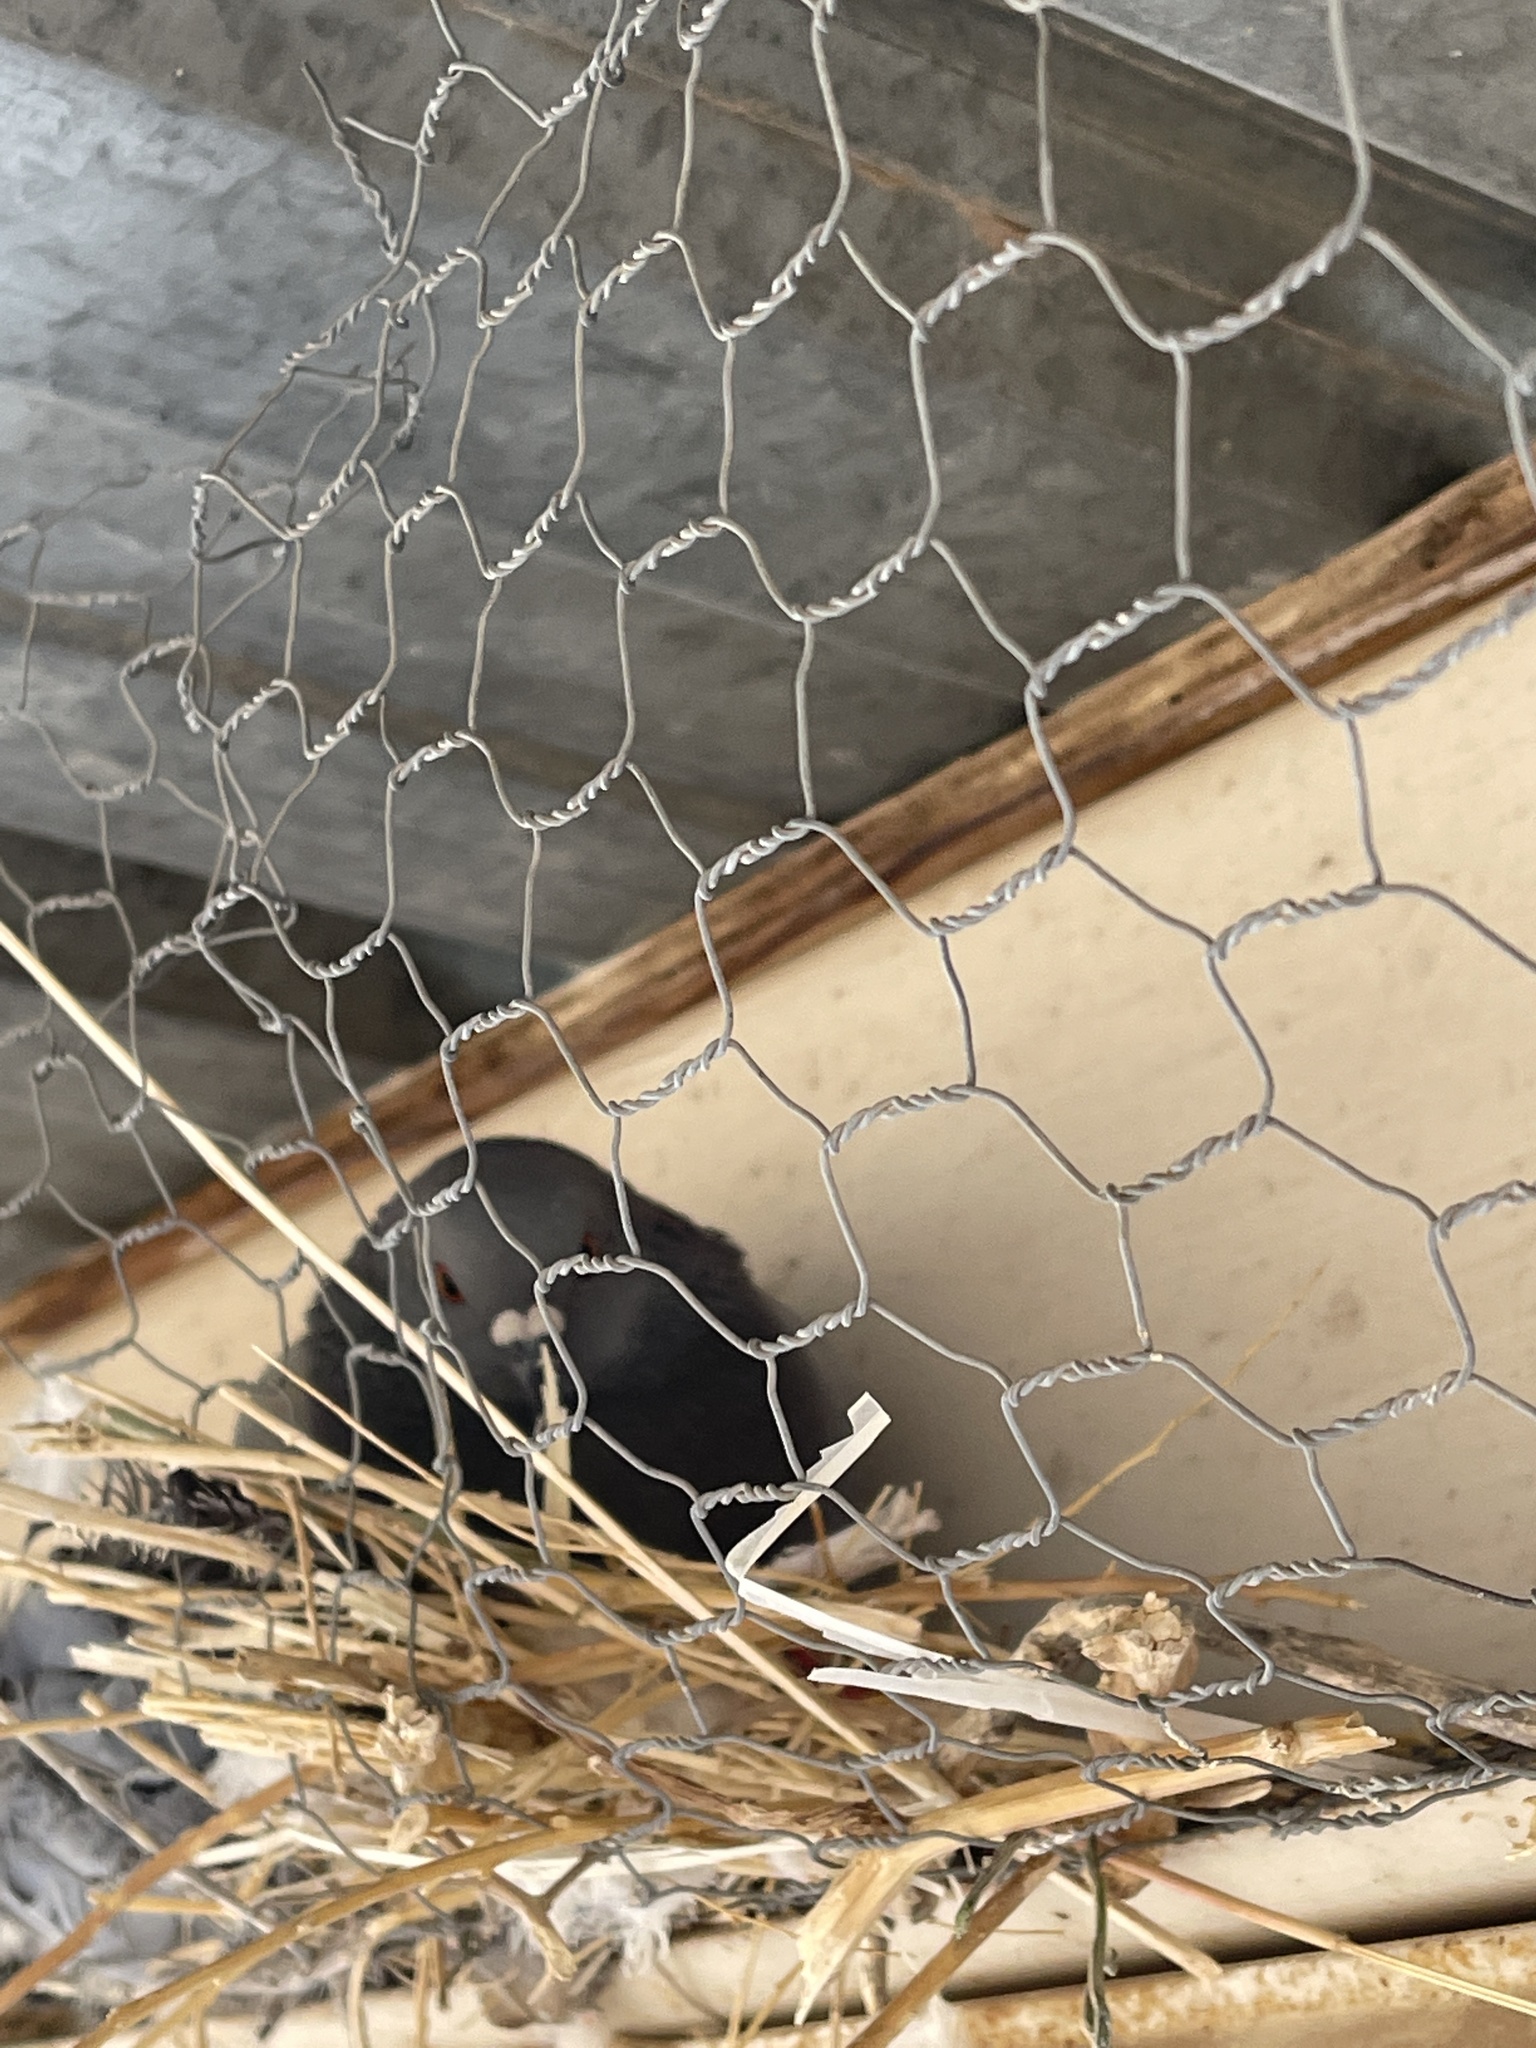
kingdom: Animalia
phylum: Chordata
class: Aves
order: Columbiformes
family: Columbidae
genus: Columba
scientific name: Columba livia
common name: Rock pigeon
